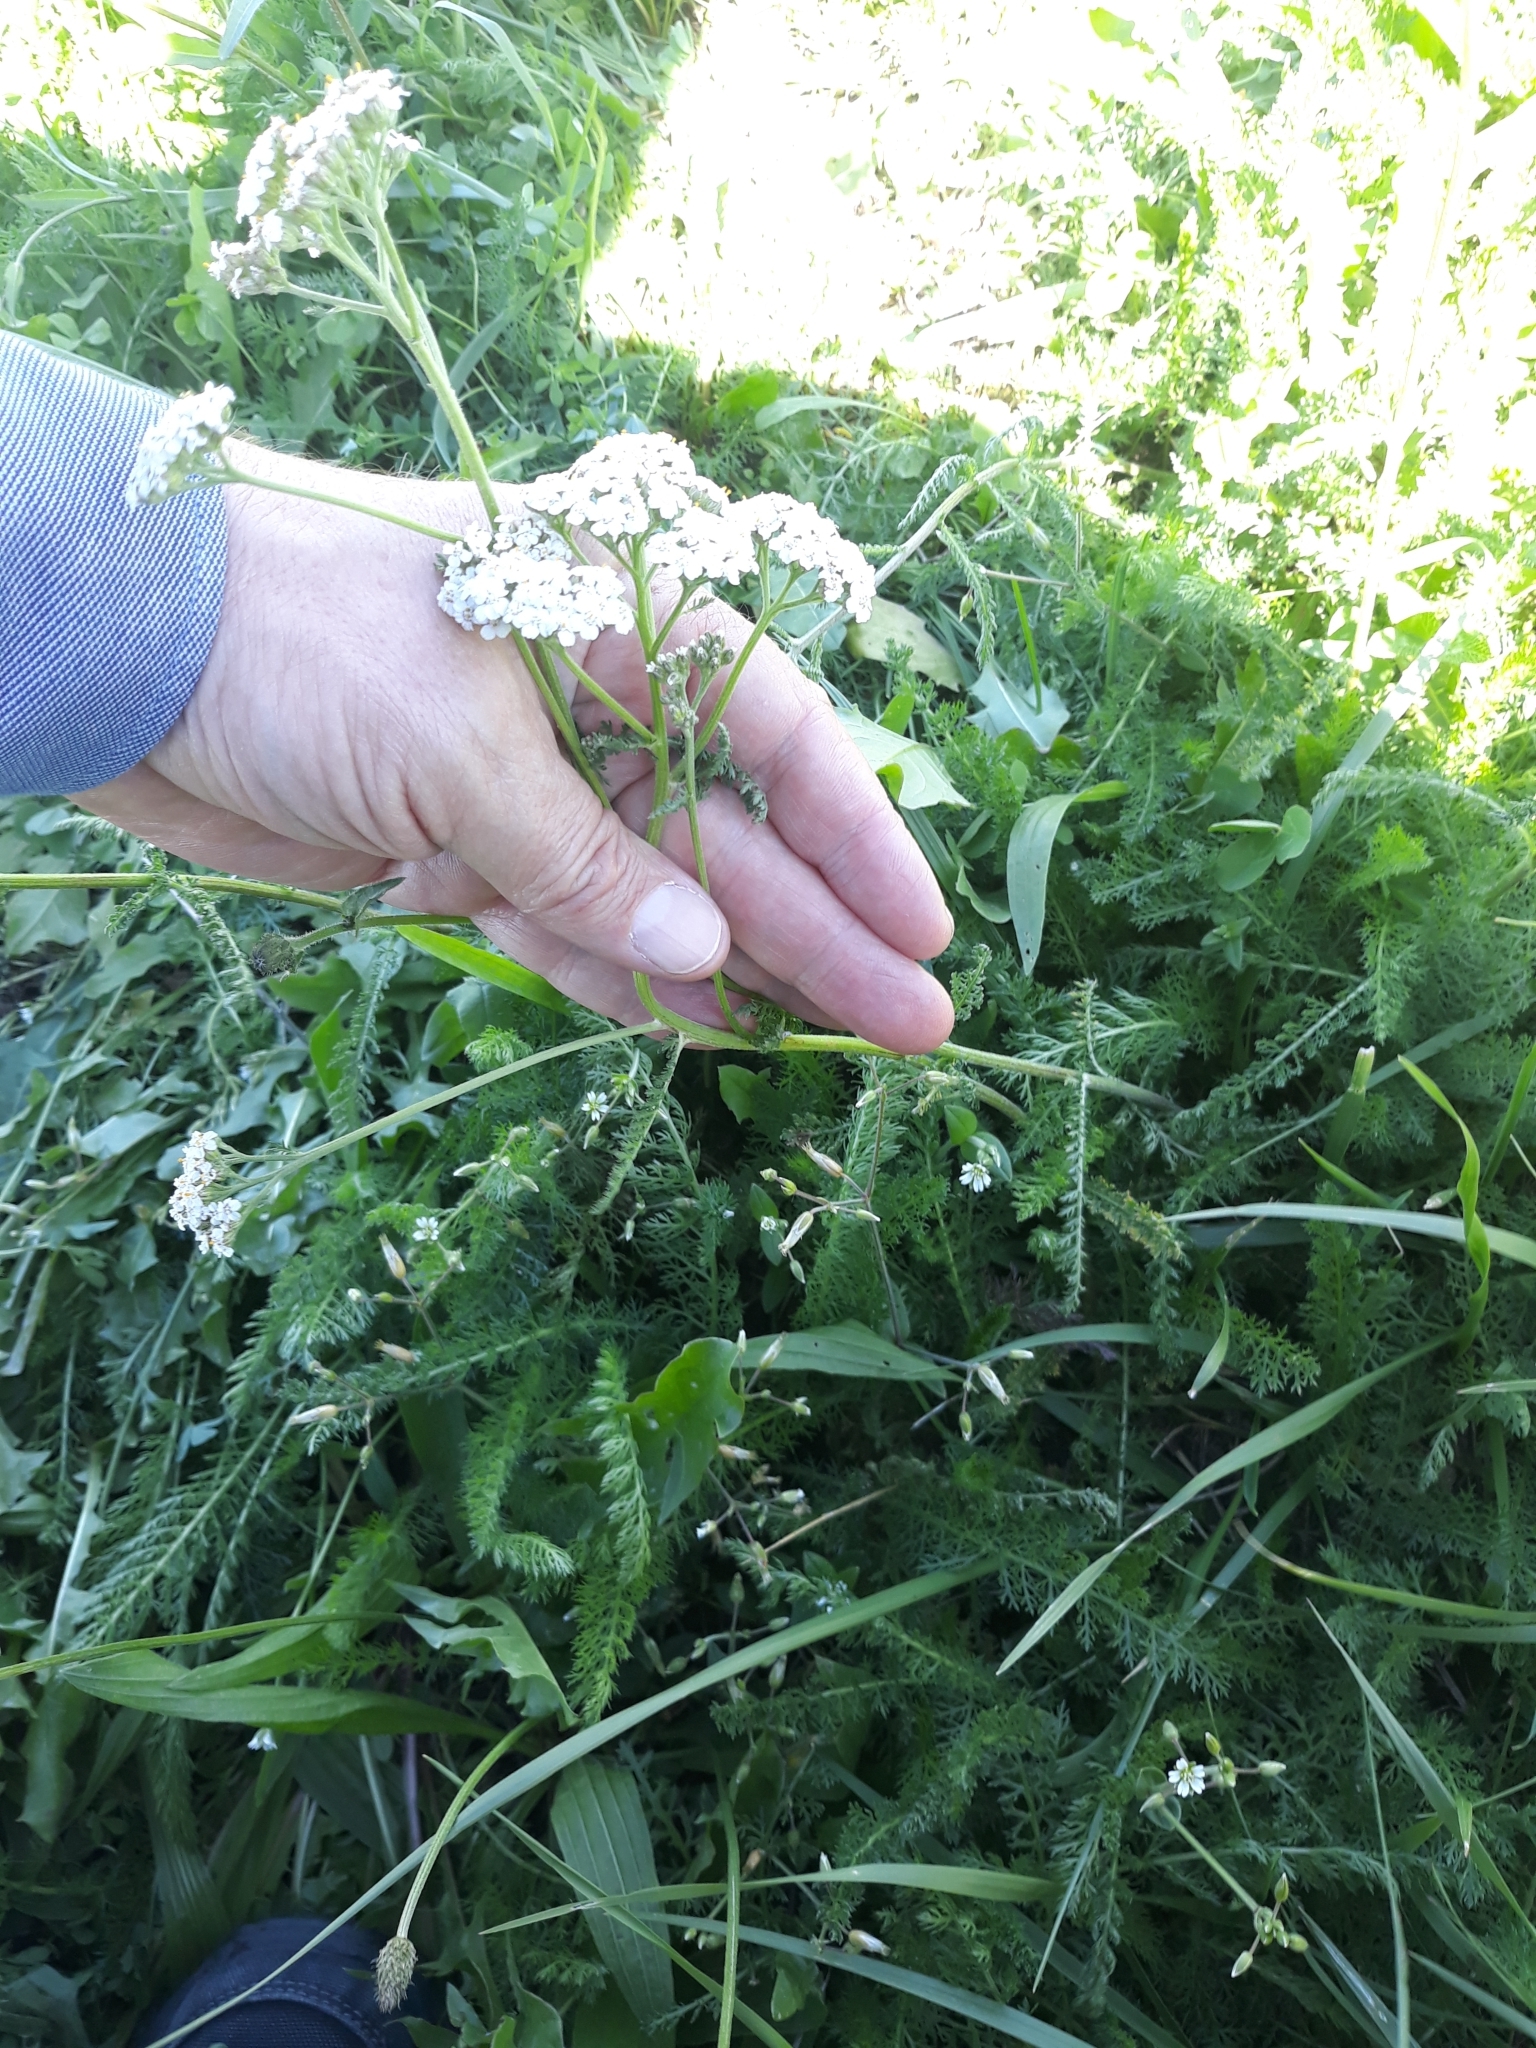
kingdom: Plantae
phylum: Tracheophyta
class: Magnoliopsida
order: Asterales
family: Asteraceae
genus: Achillea
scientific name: Achillea millefolium
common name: Yarrow
